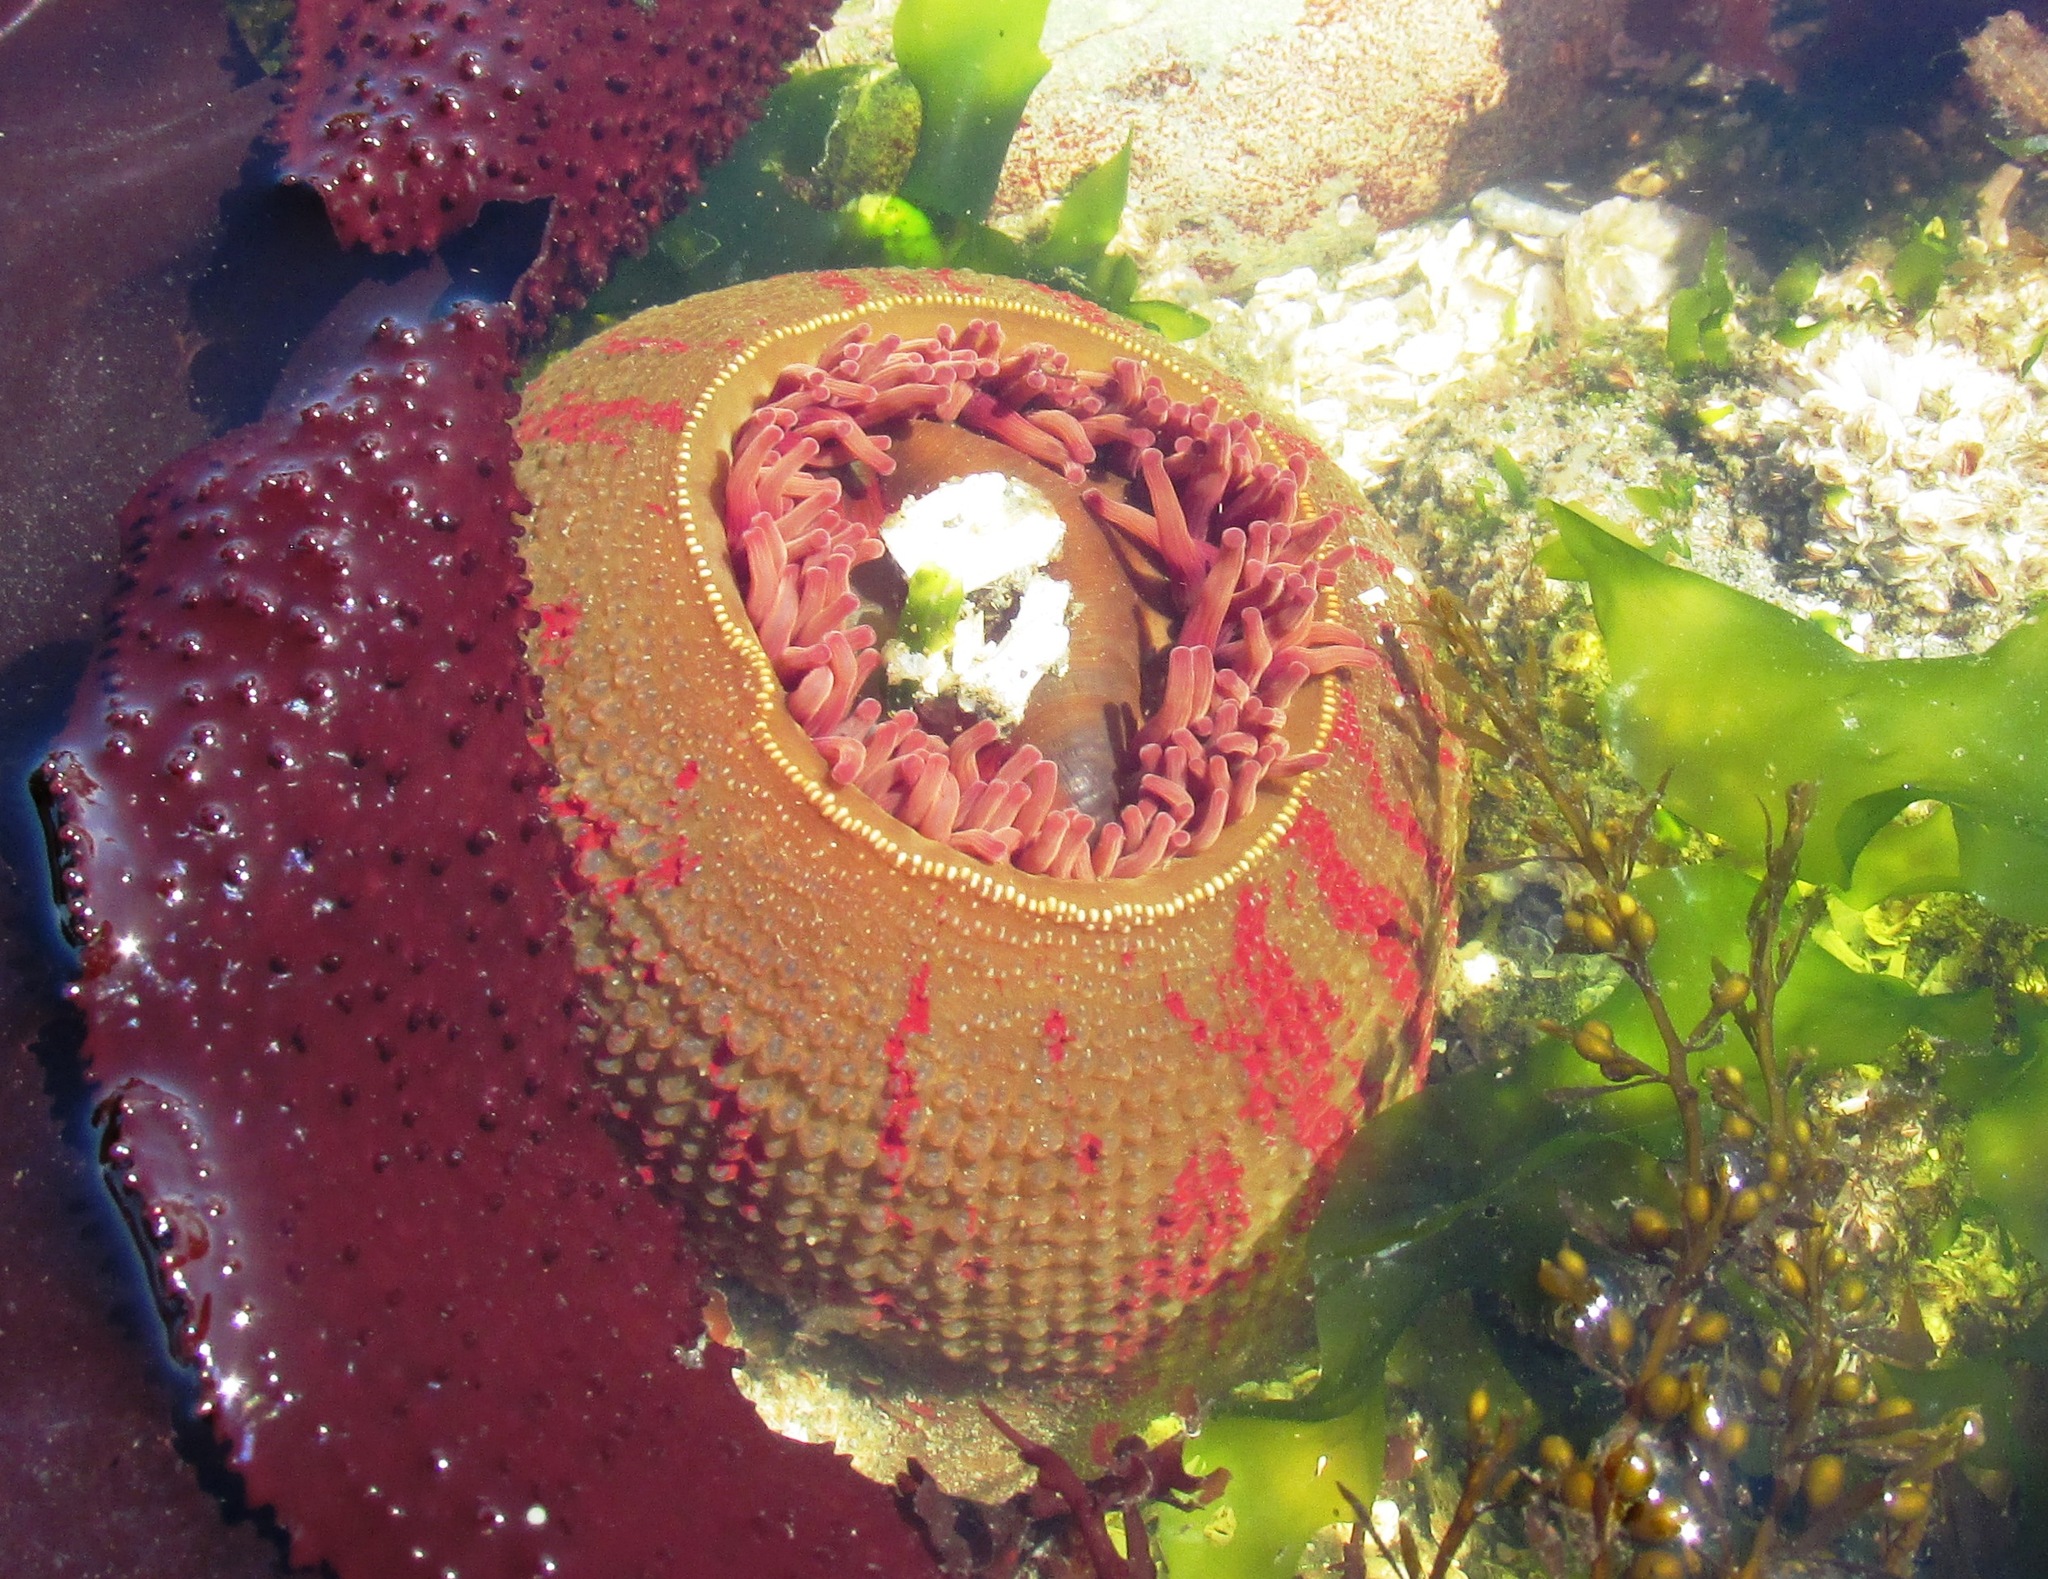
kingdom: Animalia
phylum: Cnidaria
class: Anthozoa
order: Actiniaria
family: Actiniidae
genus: Urticina
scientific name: Urticina grebelnyi
